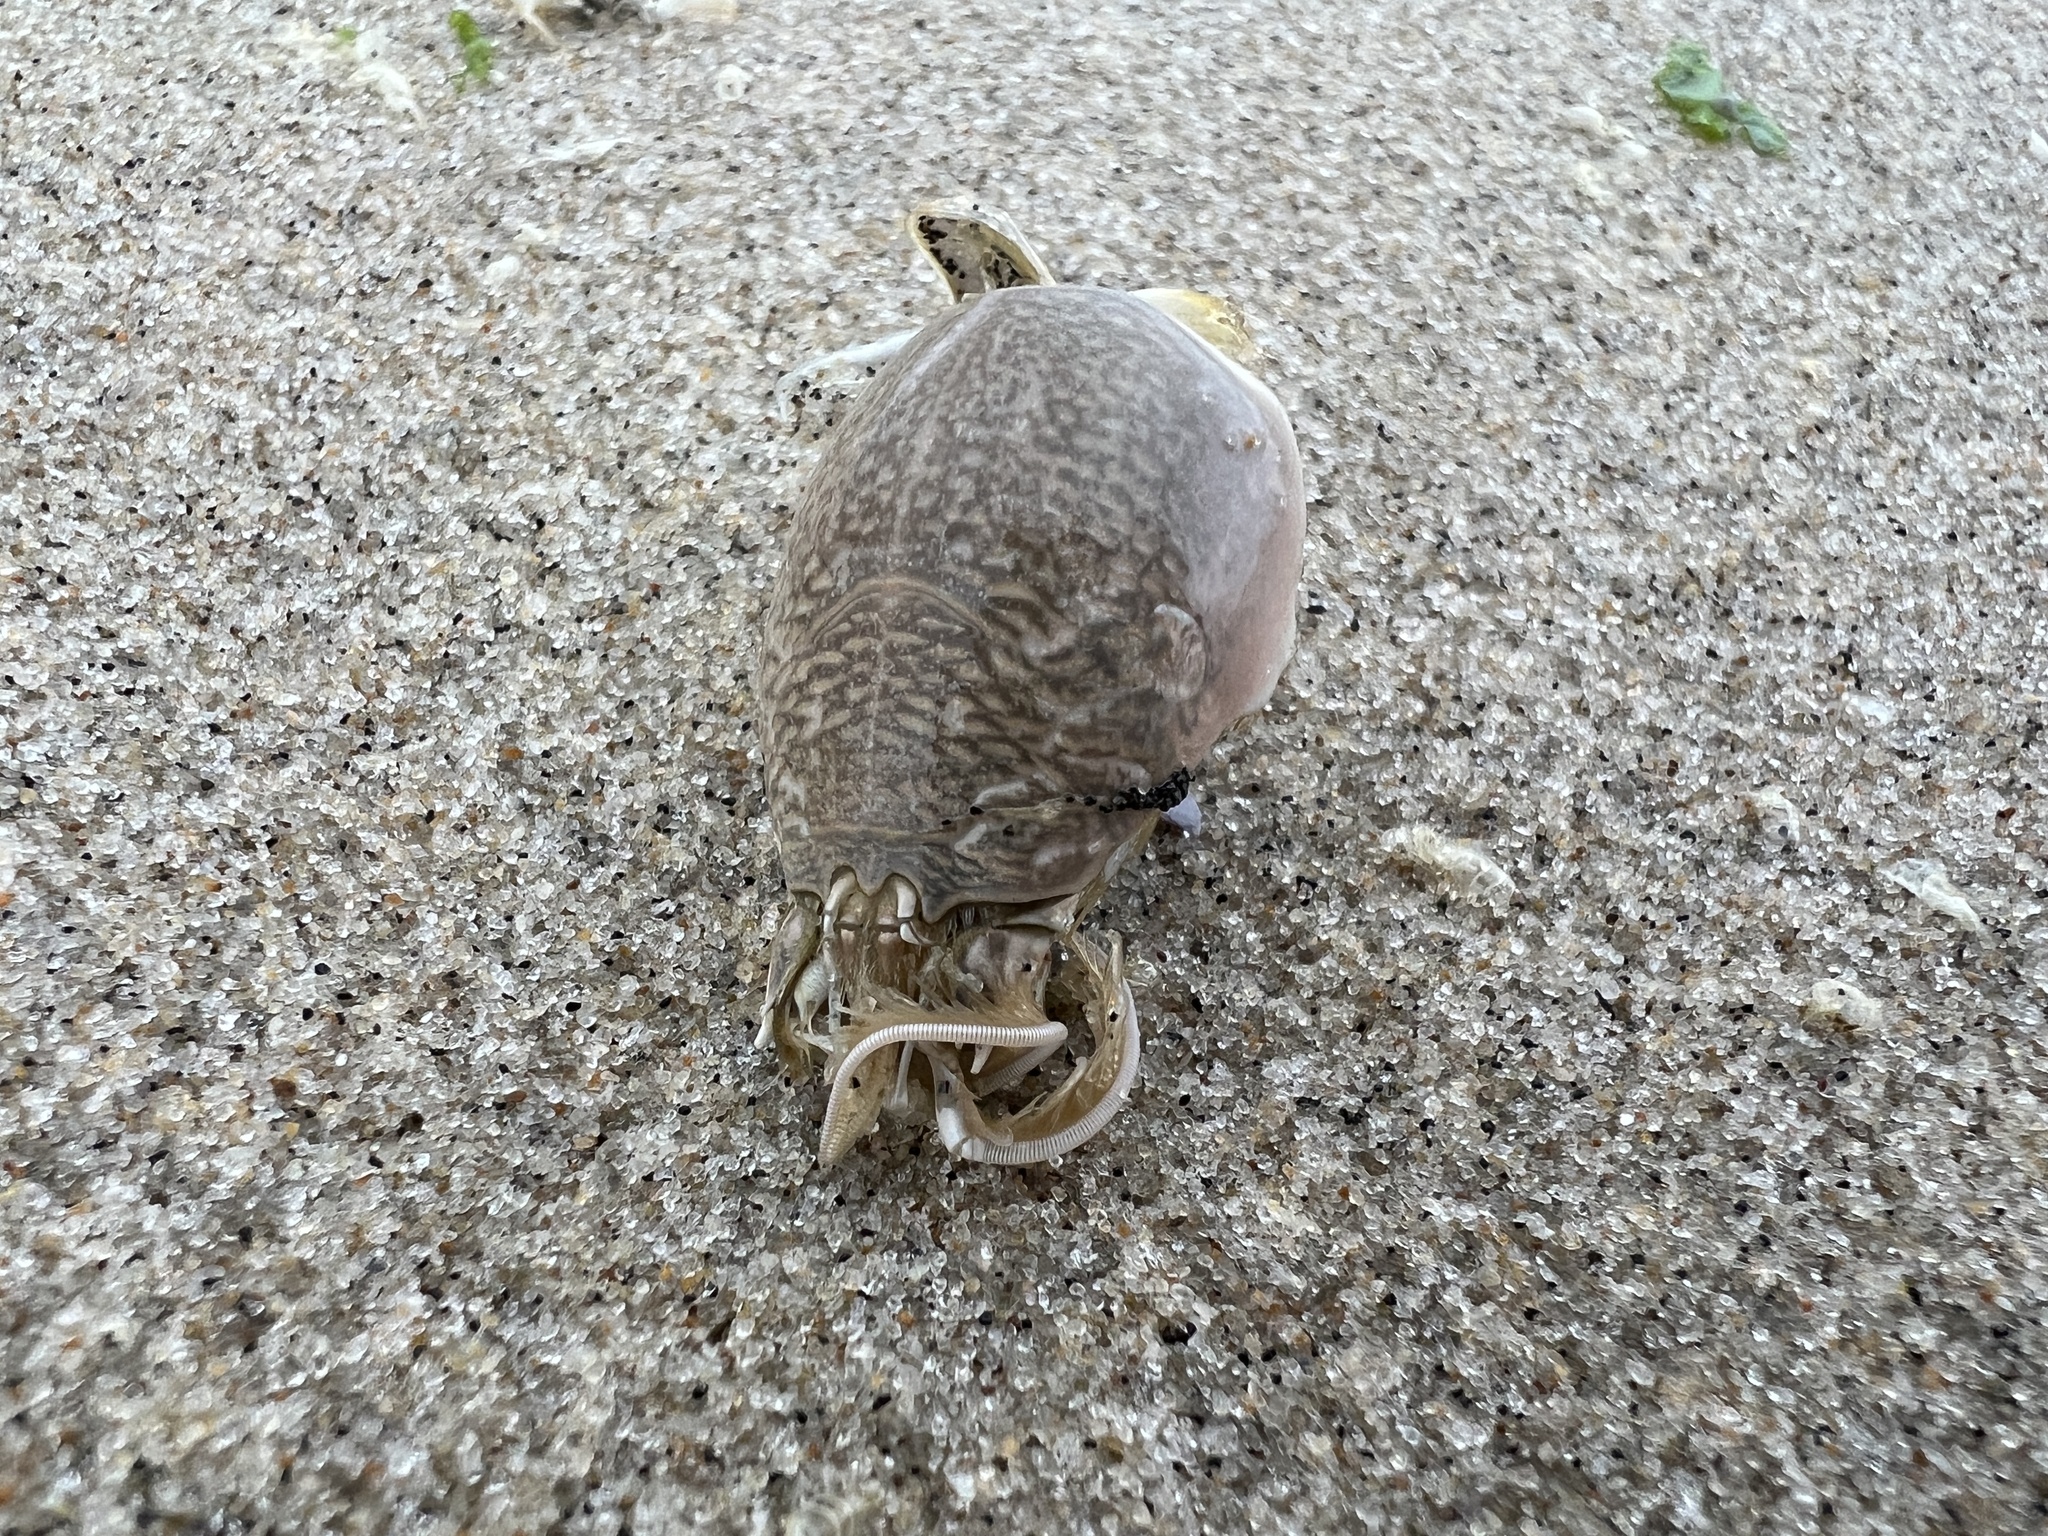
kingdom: Animalia
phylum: Arthropoda
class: Malacostraca
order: Decapoda
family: Hippidae
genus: Emerita
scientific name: Emerita talpoida
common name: Atlantic sand crab
